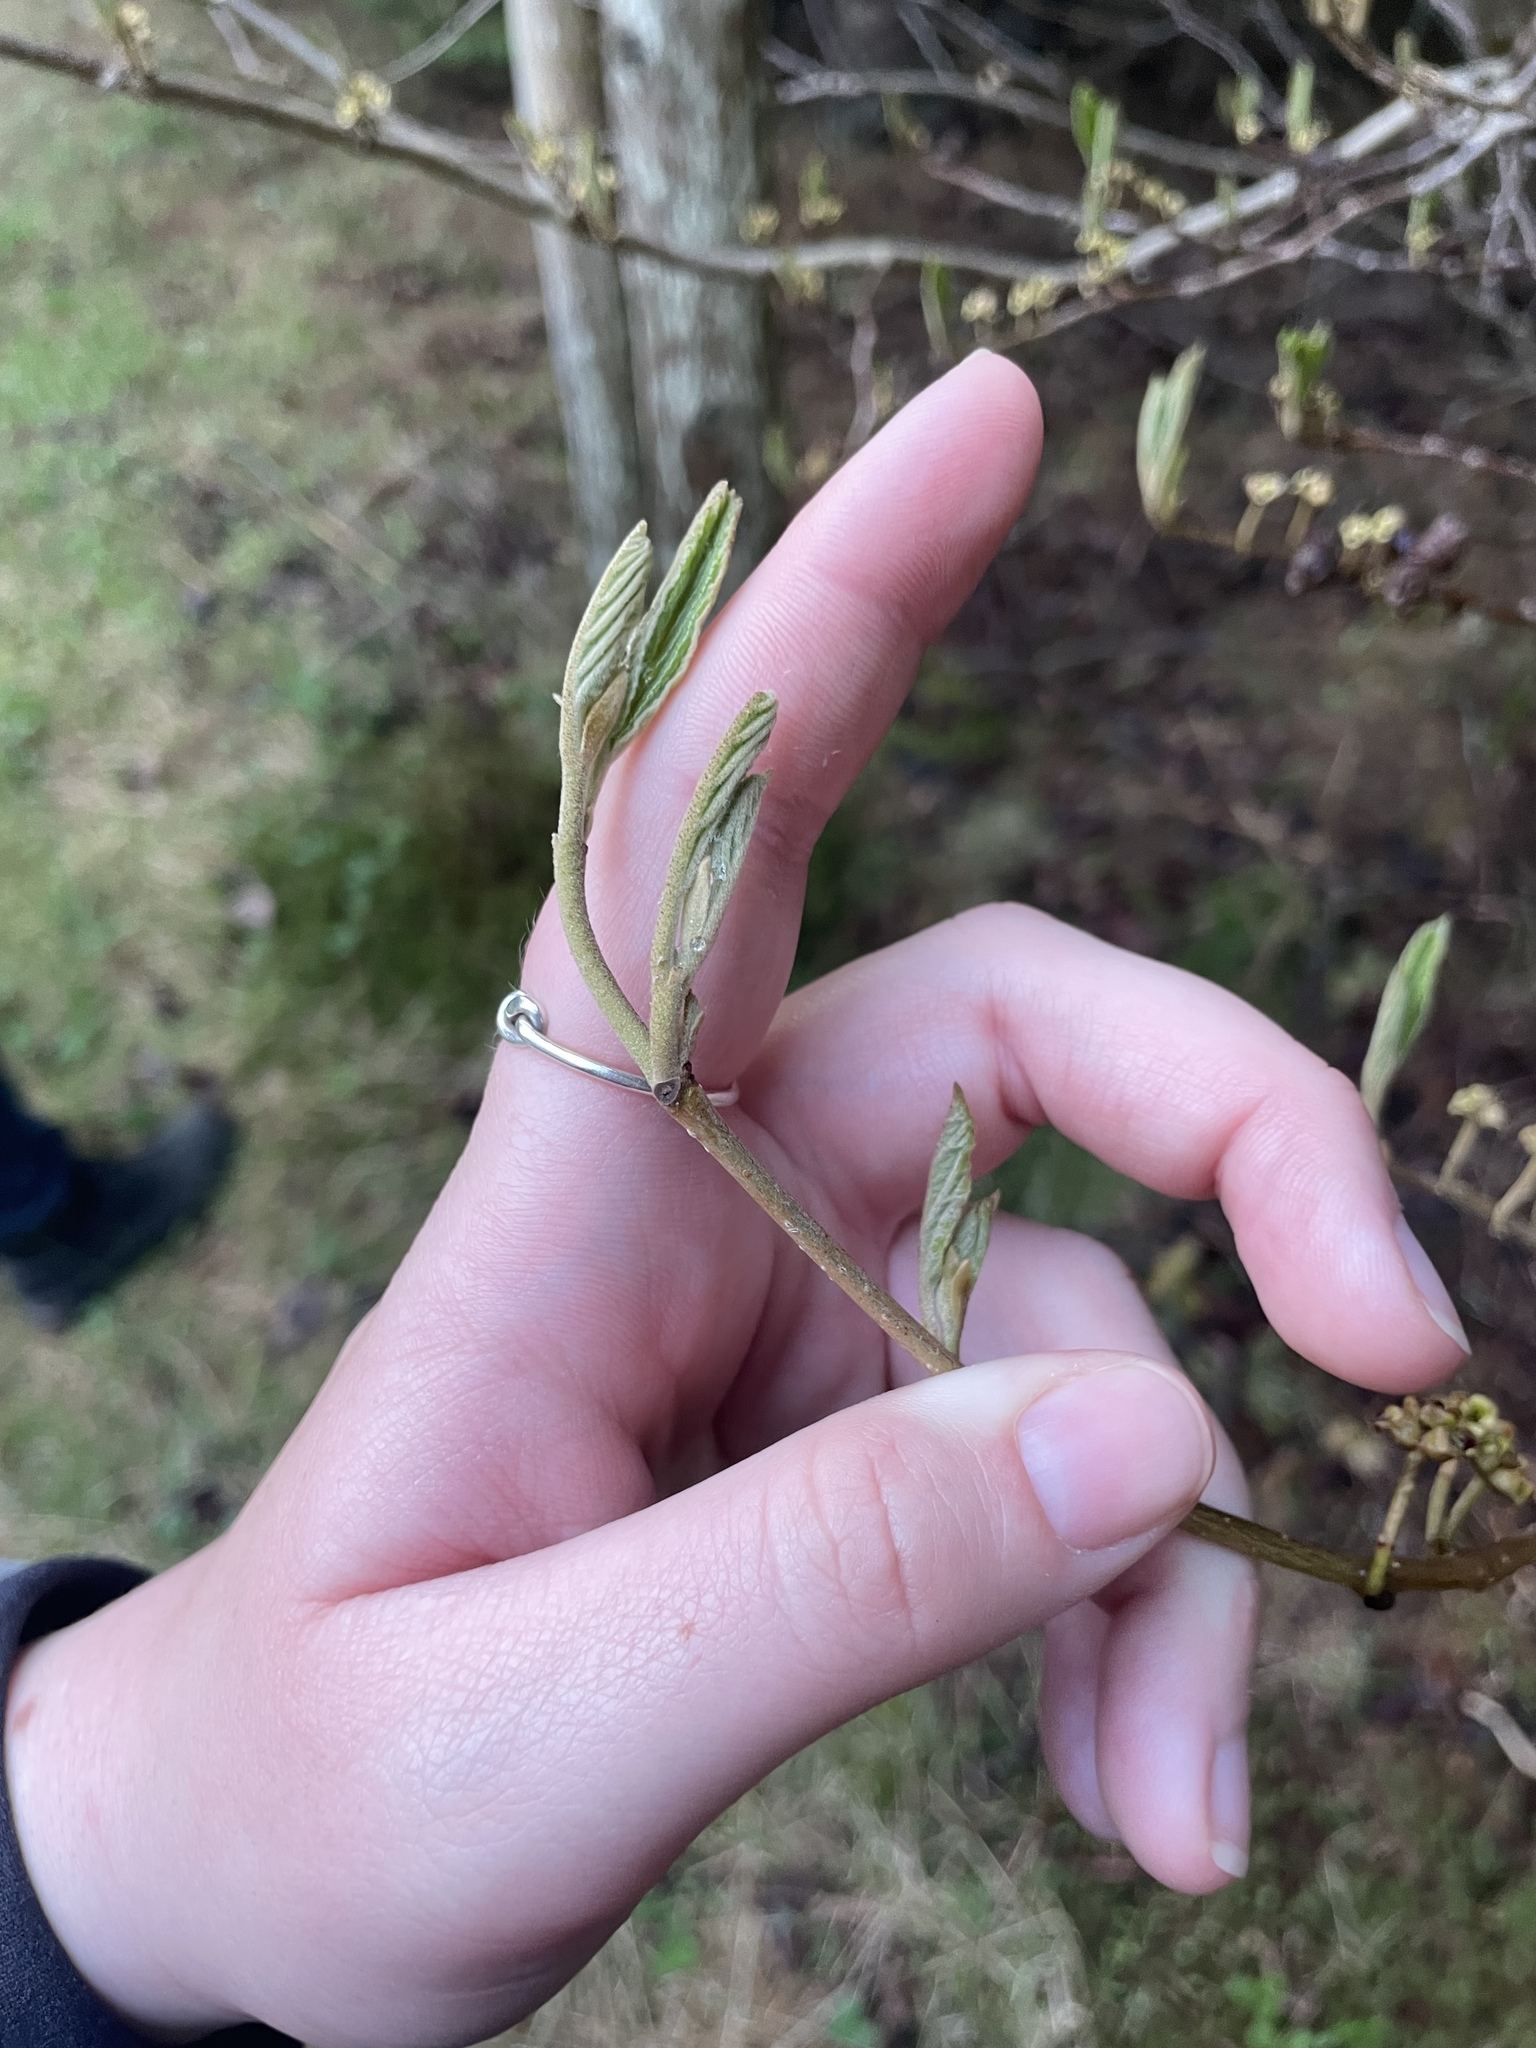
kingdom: Plantae
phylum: Tracheophyta
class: Magnoliopsida
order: Saxifragales
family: Hamamelidaceae
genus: Hamamelis
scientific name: Hamamelis virginiana
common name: Witch-hazel
